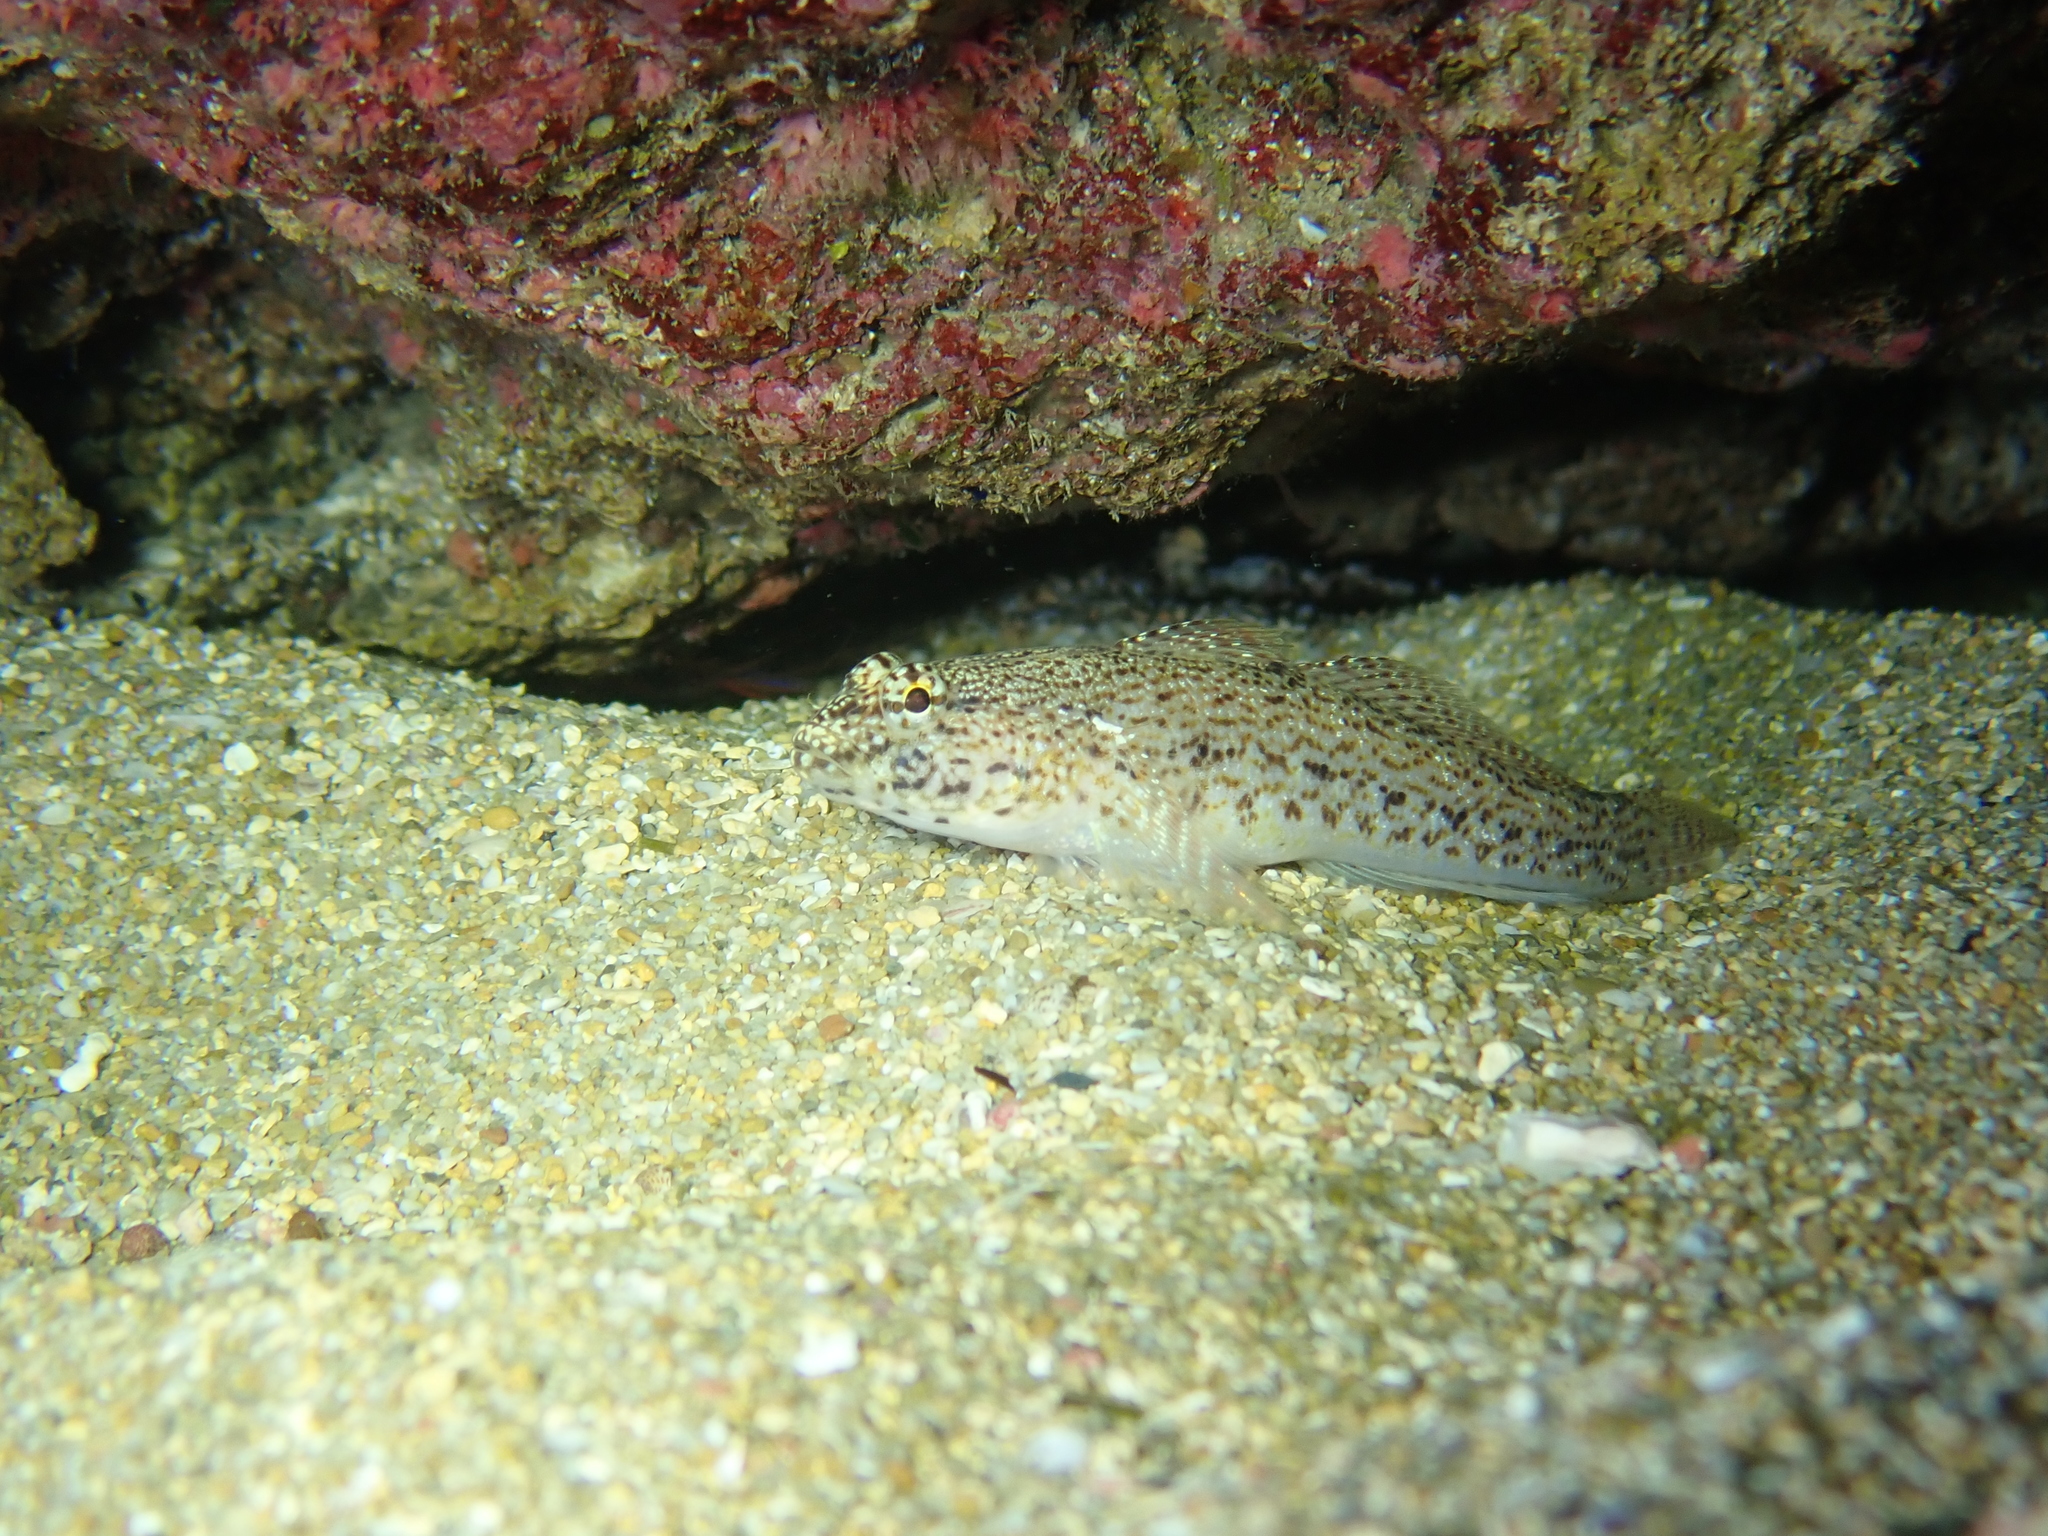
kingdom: Animalia
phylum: Chordata
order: Perciformes
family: Gobiidae
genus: Gobius
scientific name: Gobius incognitus
